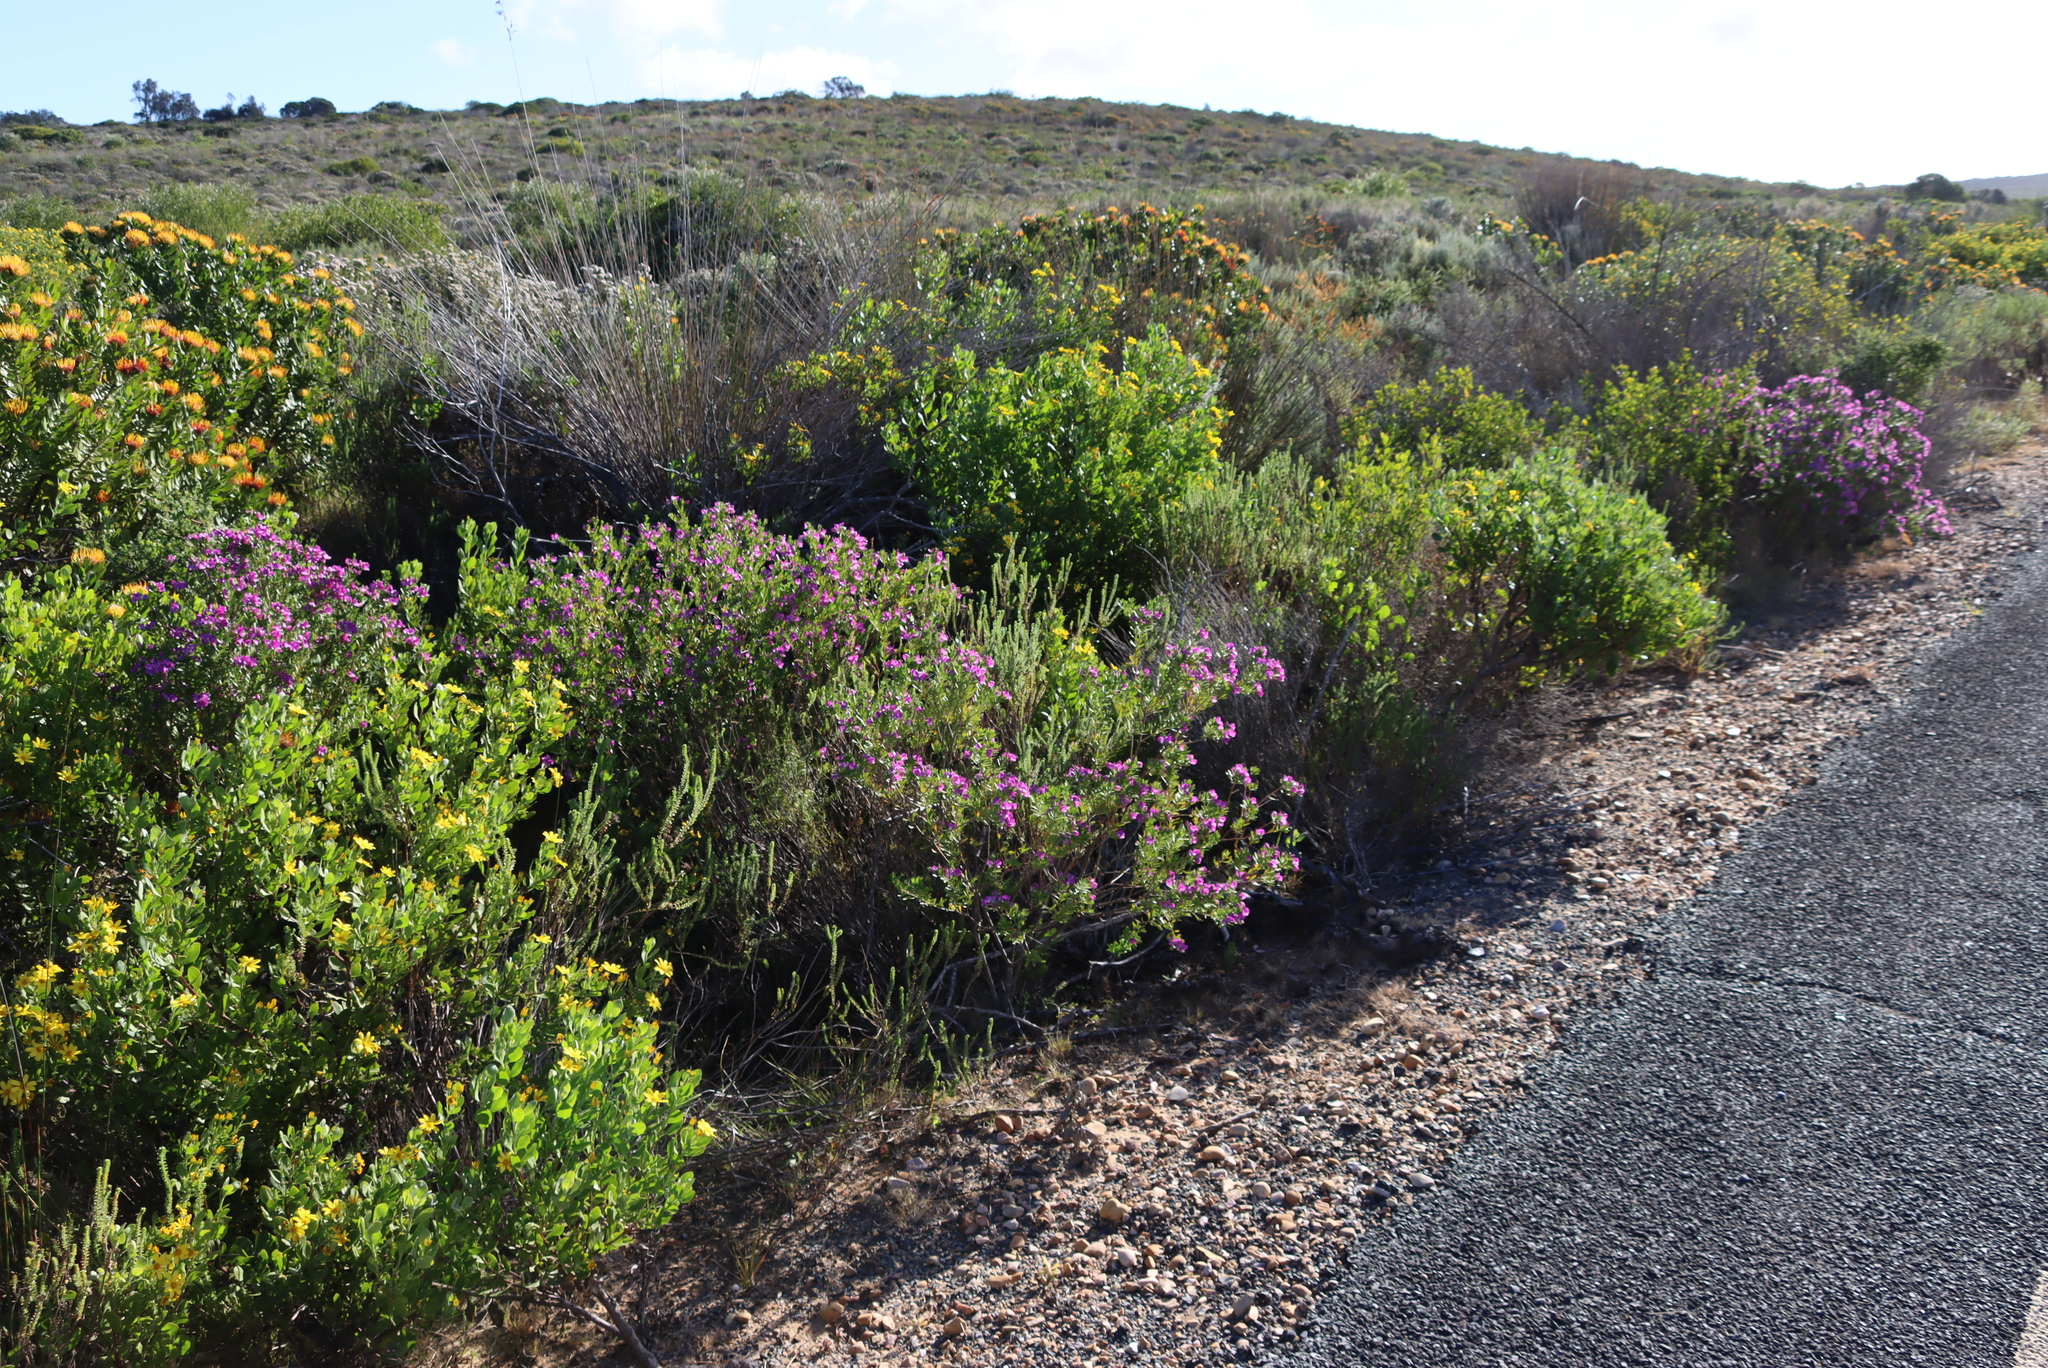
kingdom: Plantae
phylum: Tracheophyta
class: Magnoliopsida
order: Asterales
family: Asteraceae
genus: Osteospermum
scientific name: Osteospermum moniliferum
